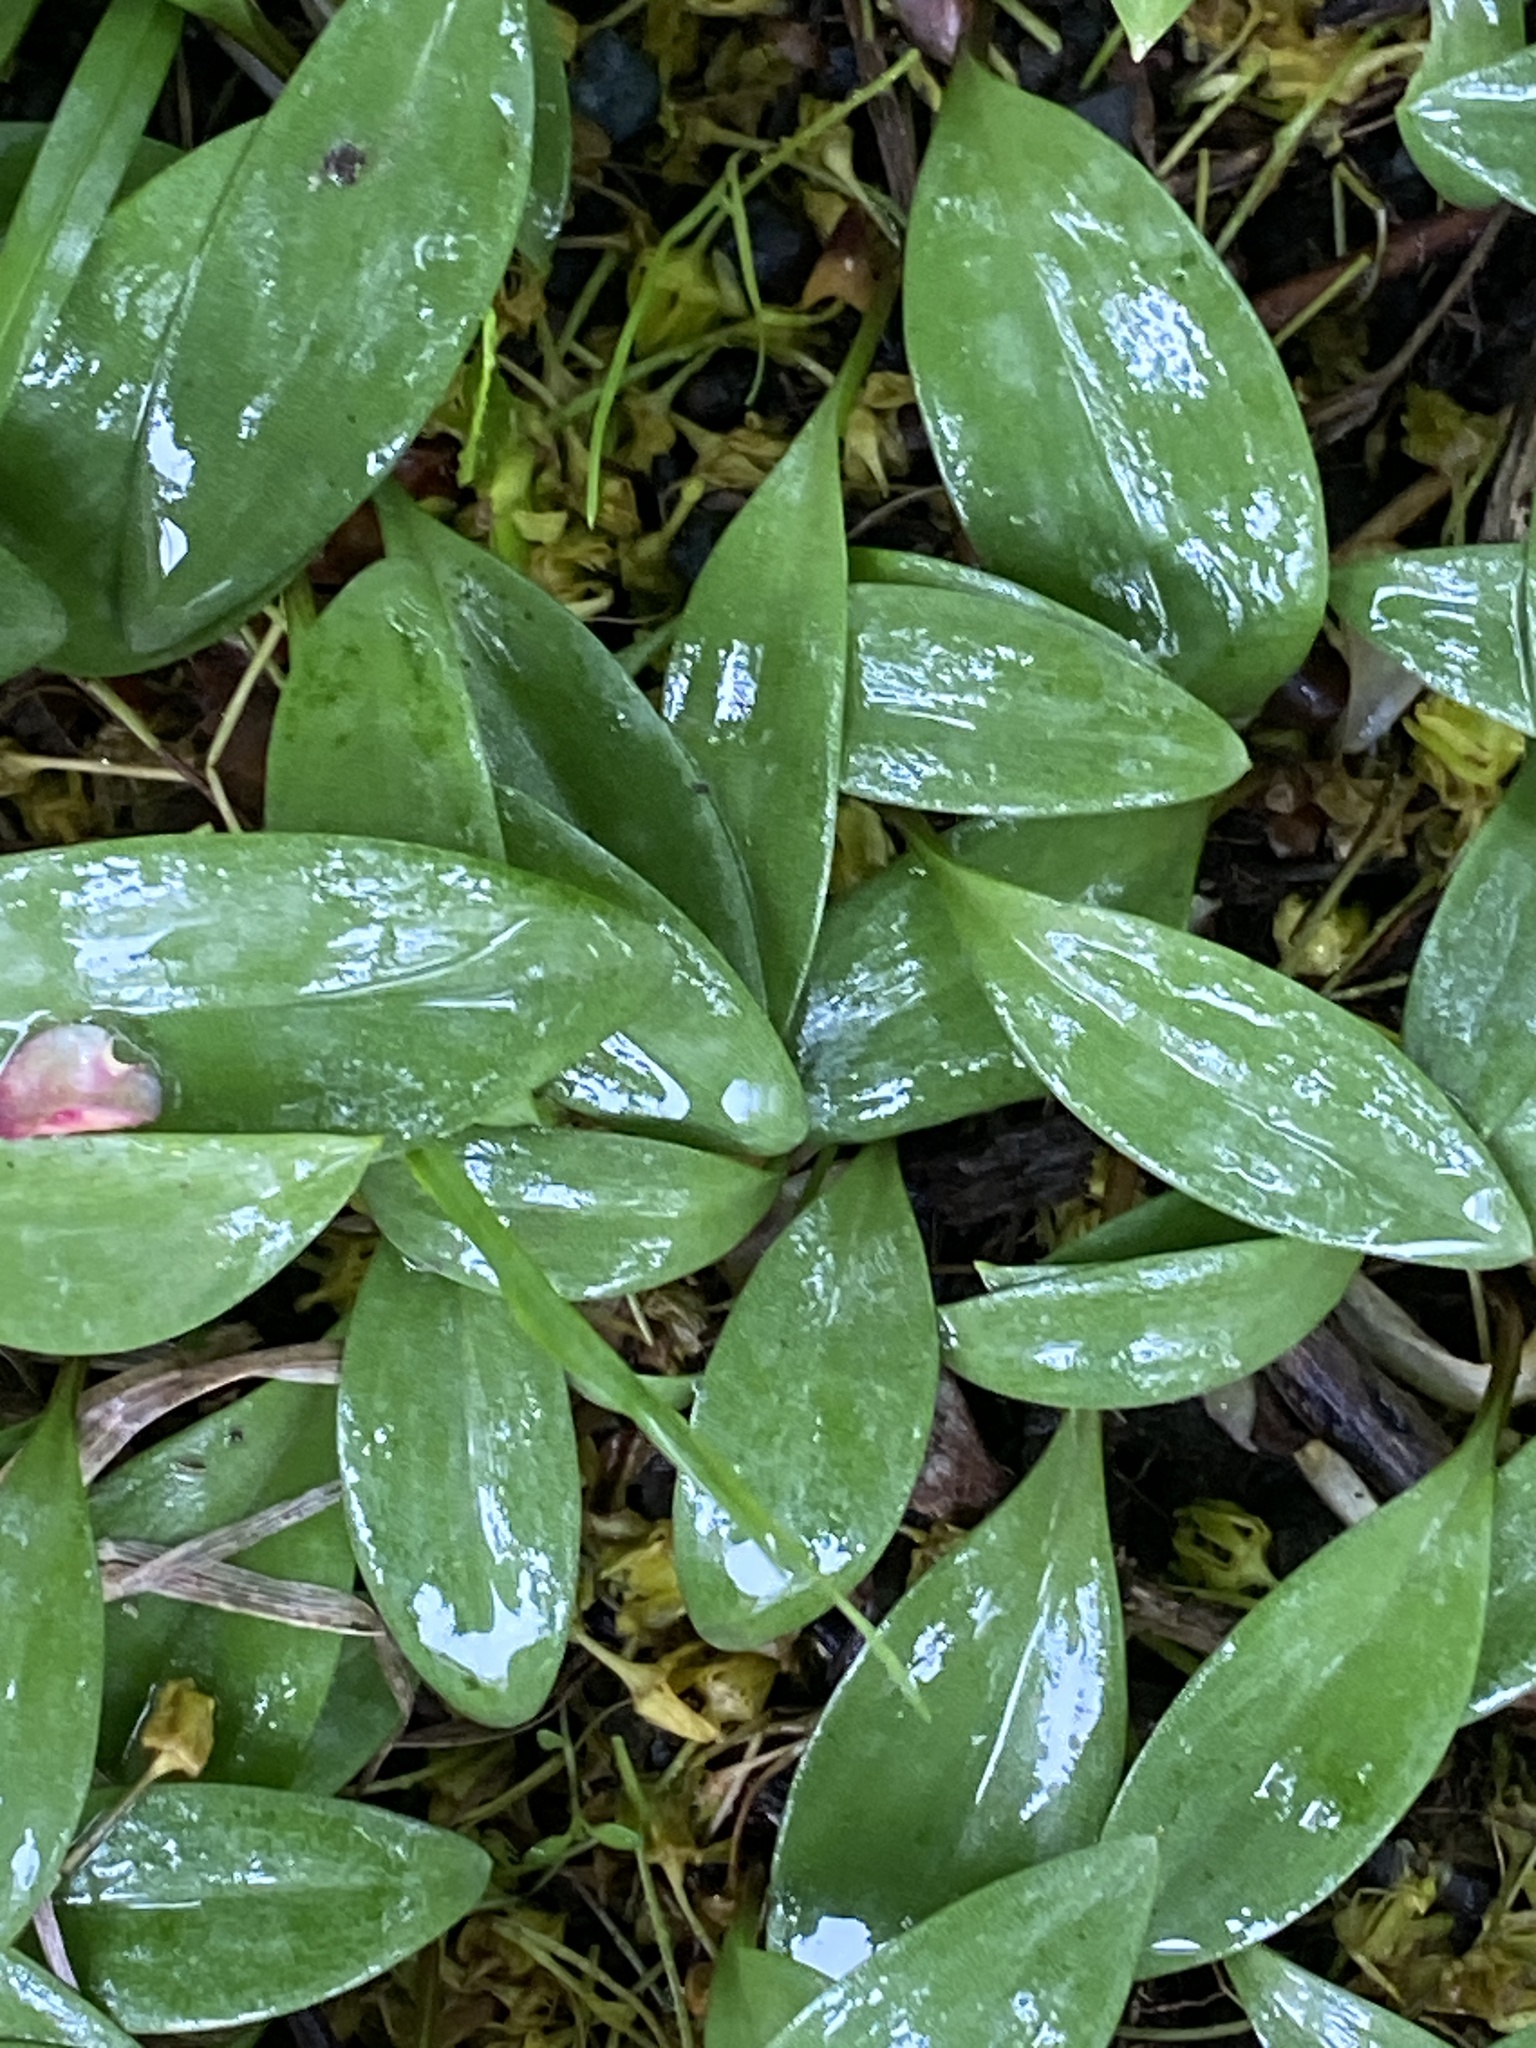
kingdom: Plantae
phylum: Tracheophyta
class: Liliopsida
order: Liliales
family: Liliaceae
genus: Erythronium
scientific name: Erythronium americanum
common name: Yellow adder's-tongue
